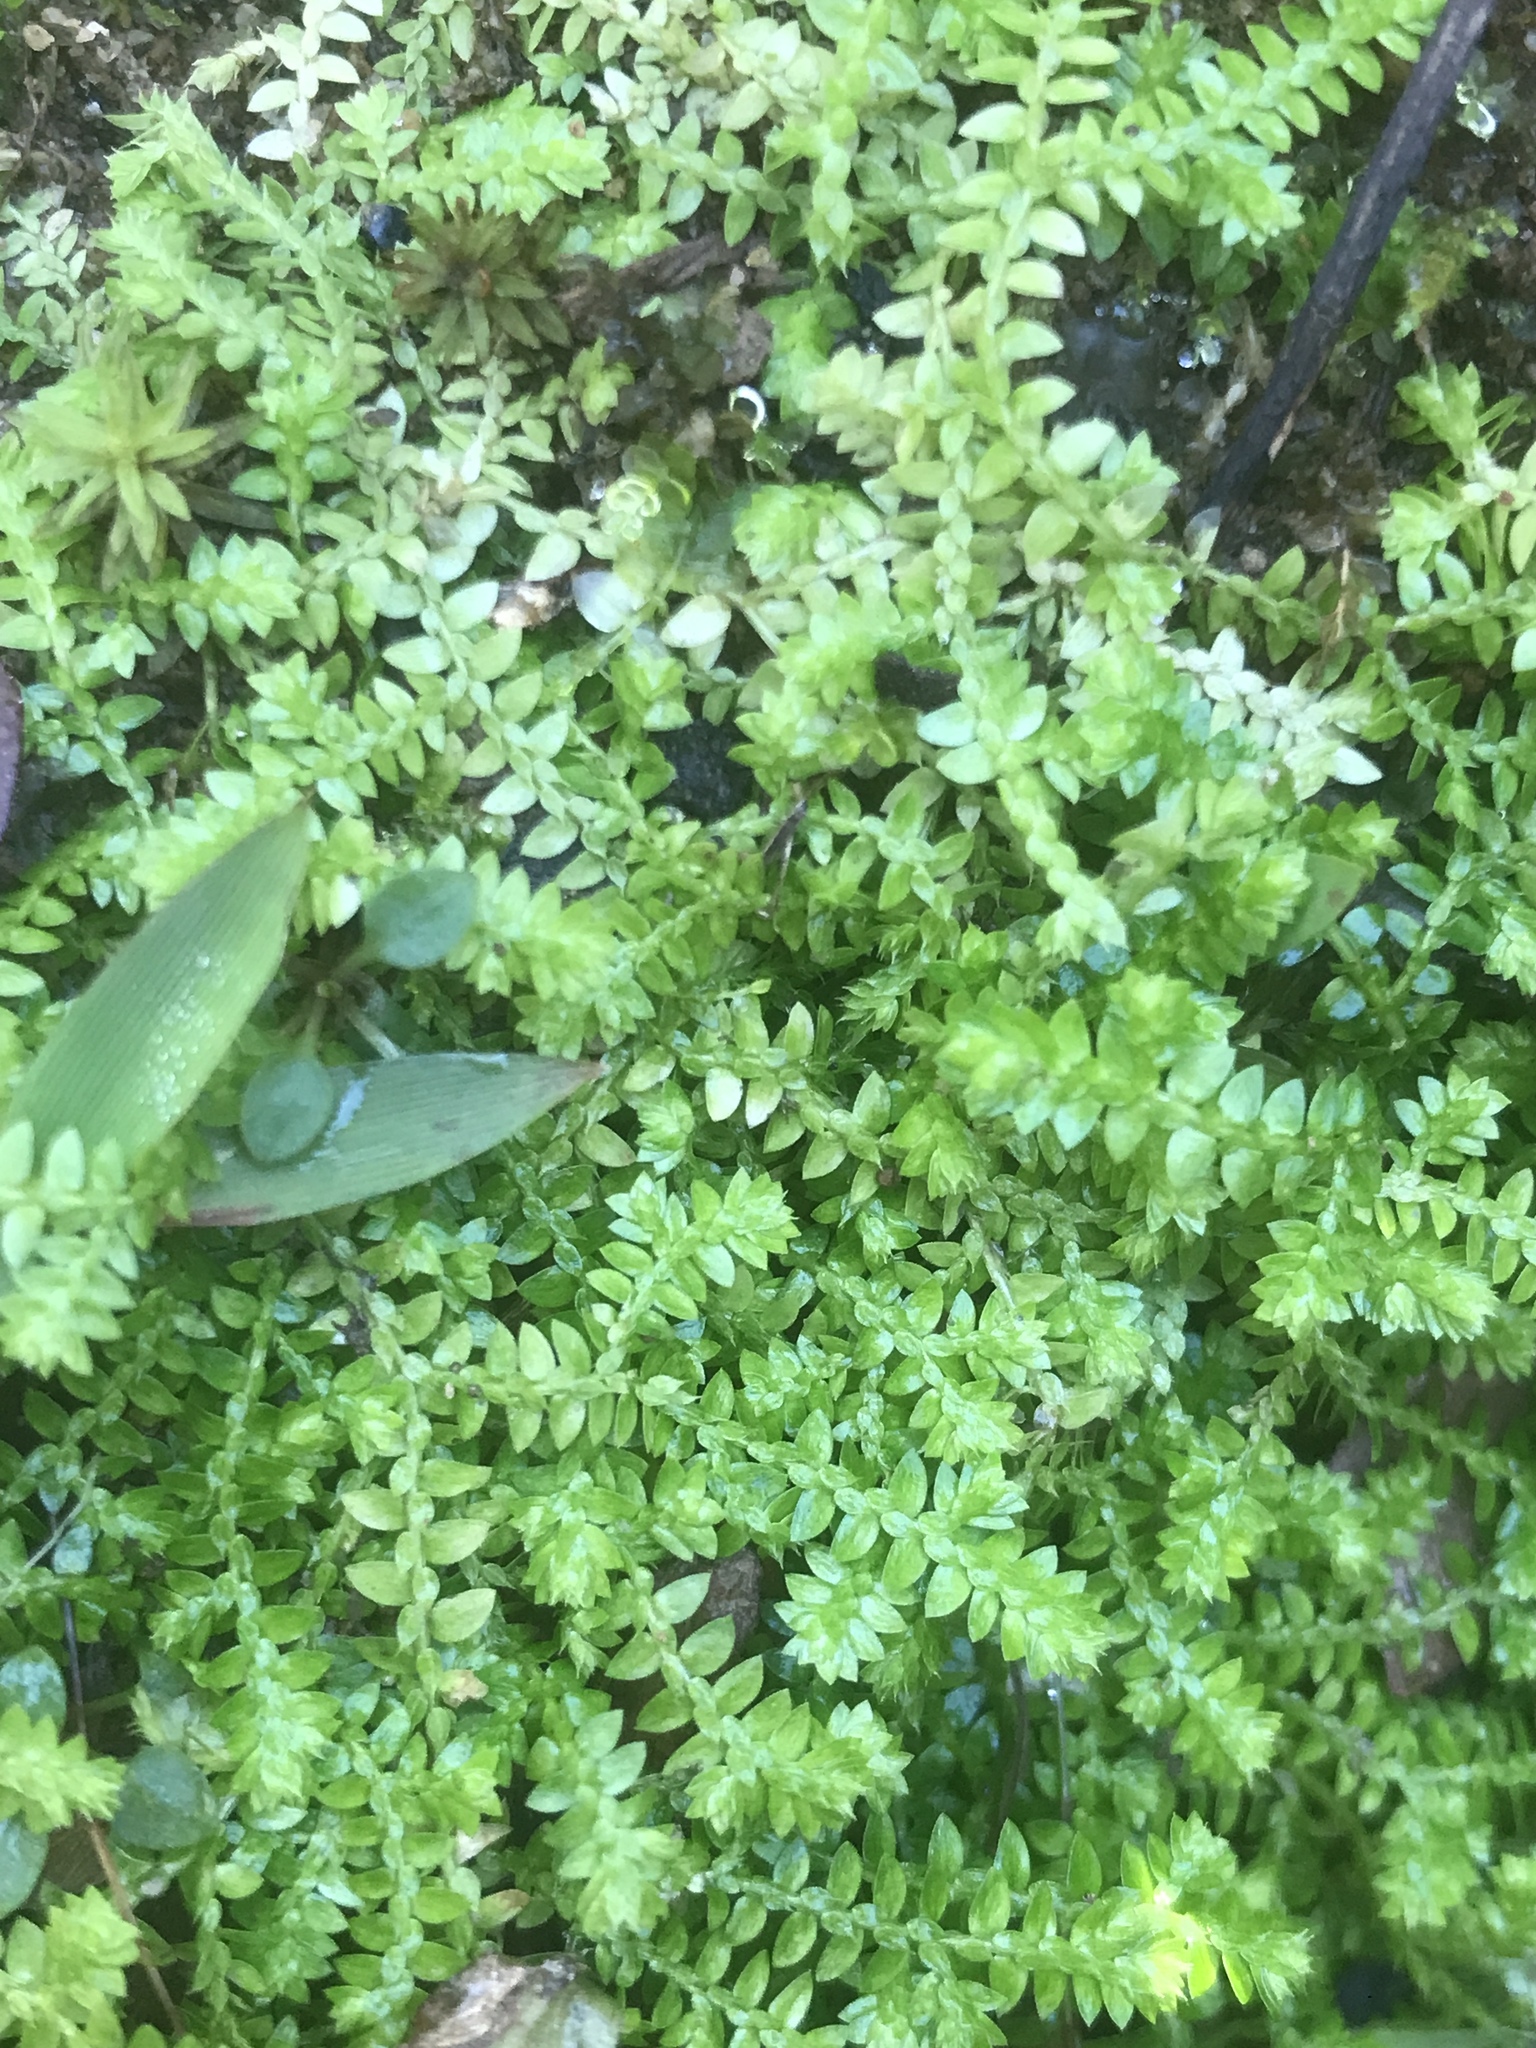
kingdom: Plantae
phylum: Tracheophyta
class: Lycopodiopsida
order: Selaginellales
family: Selaginellaceae
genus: Selaginella
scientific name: Selaginella apoda
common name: Creeping spikemoss
